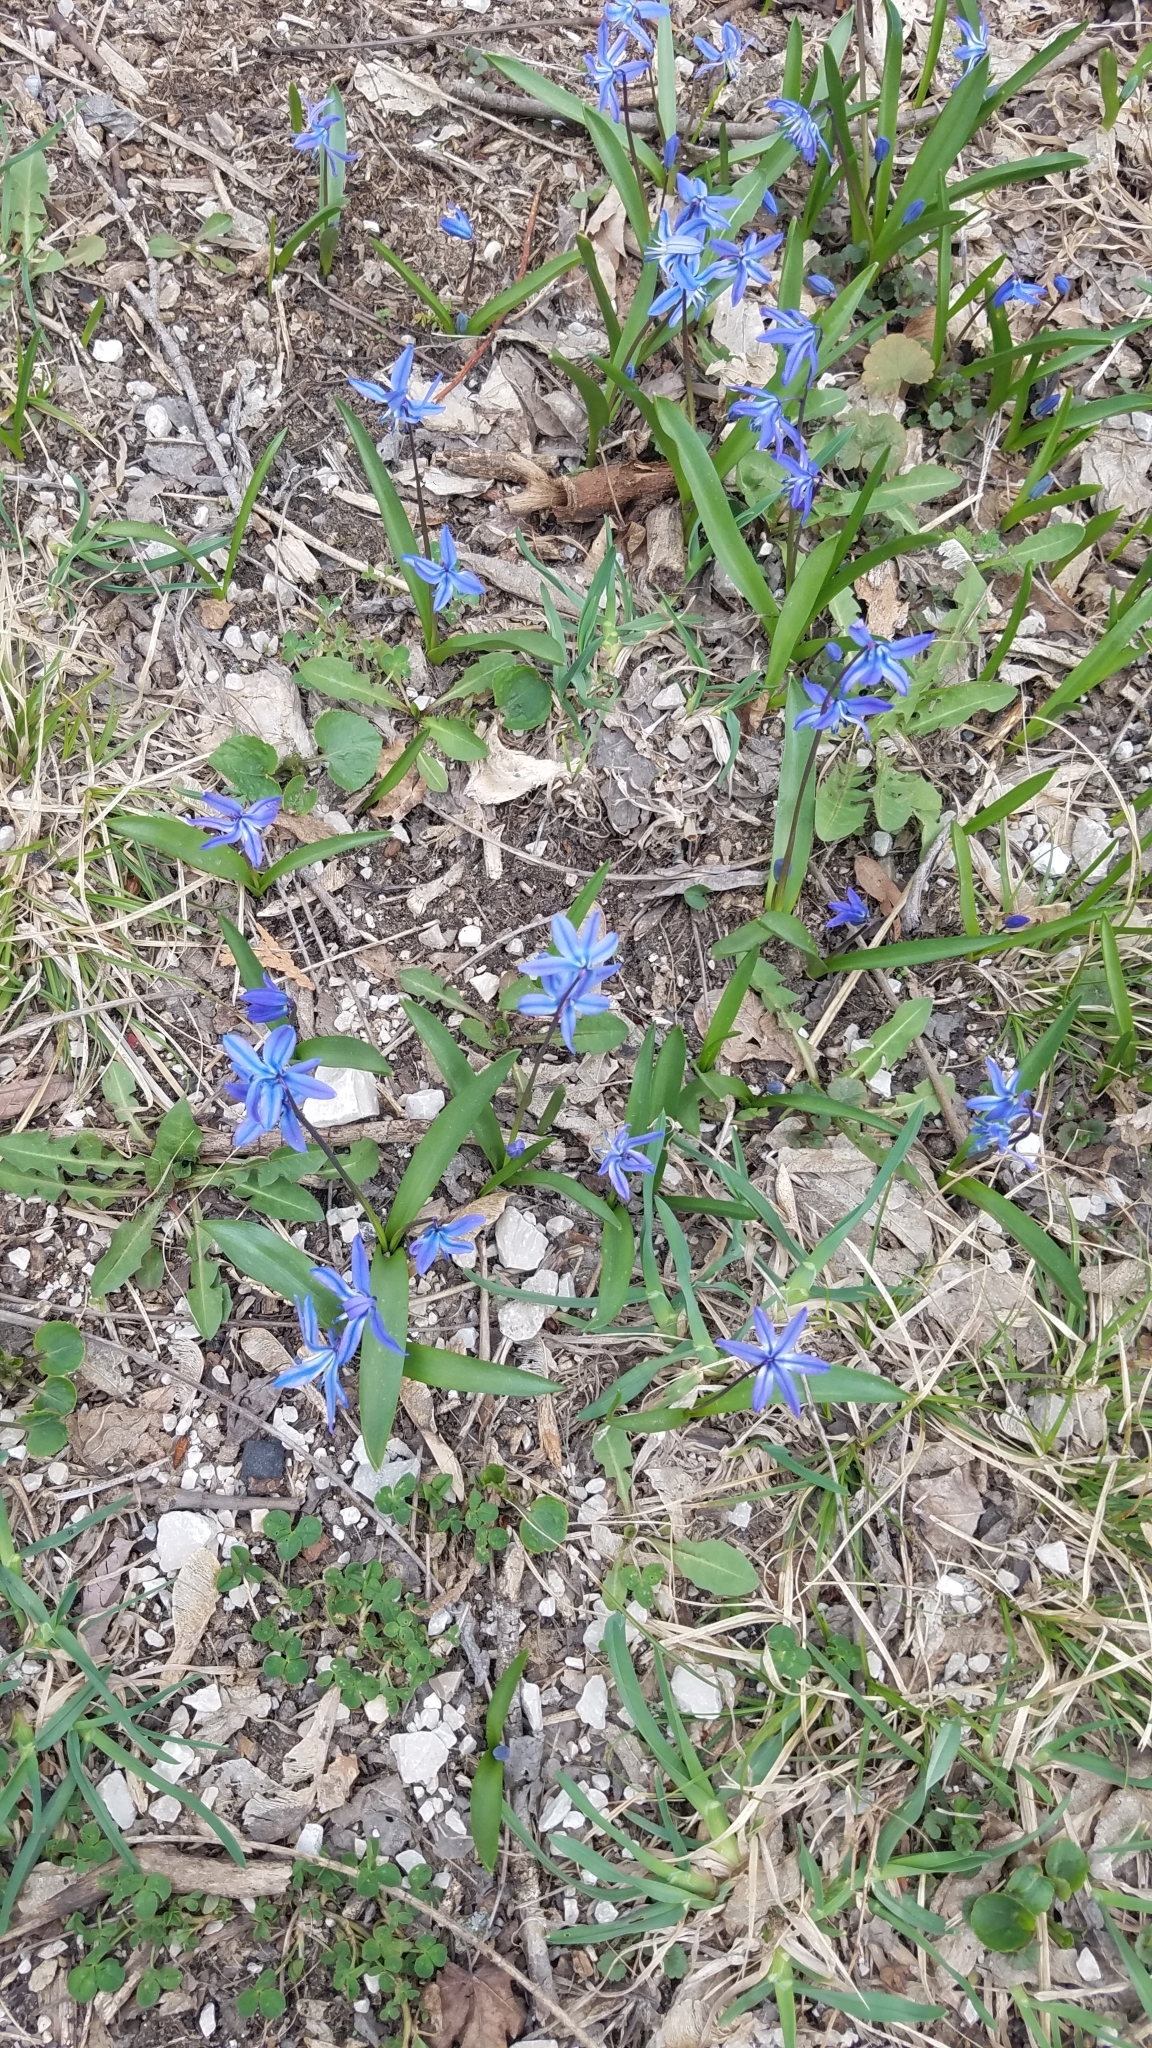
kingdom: Plantae
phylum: Tracheophyta
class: Liliopsida
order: Asparagales
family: Asparagaceae
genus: Scilla
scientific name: Scilla siberica
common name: Siberian squill
